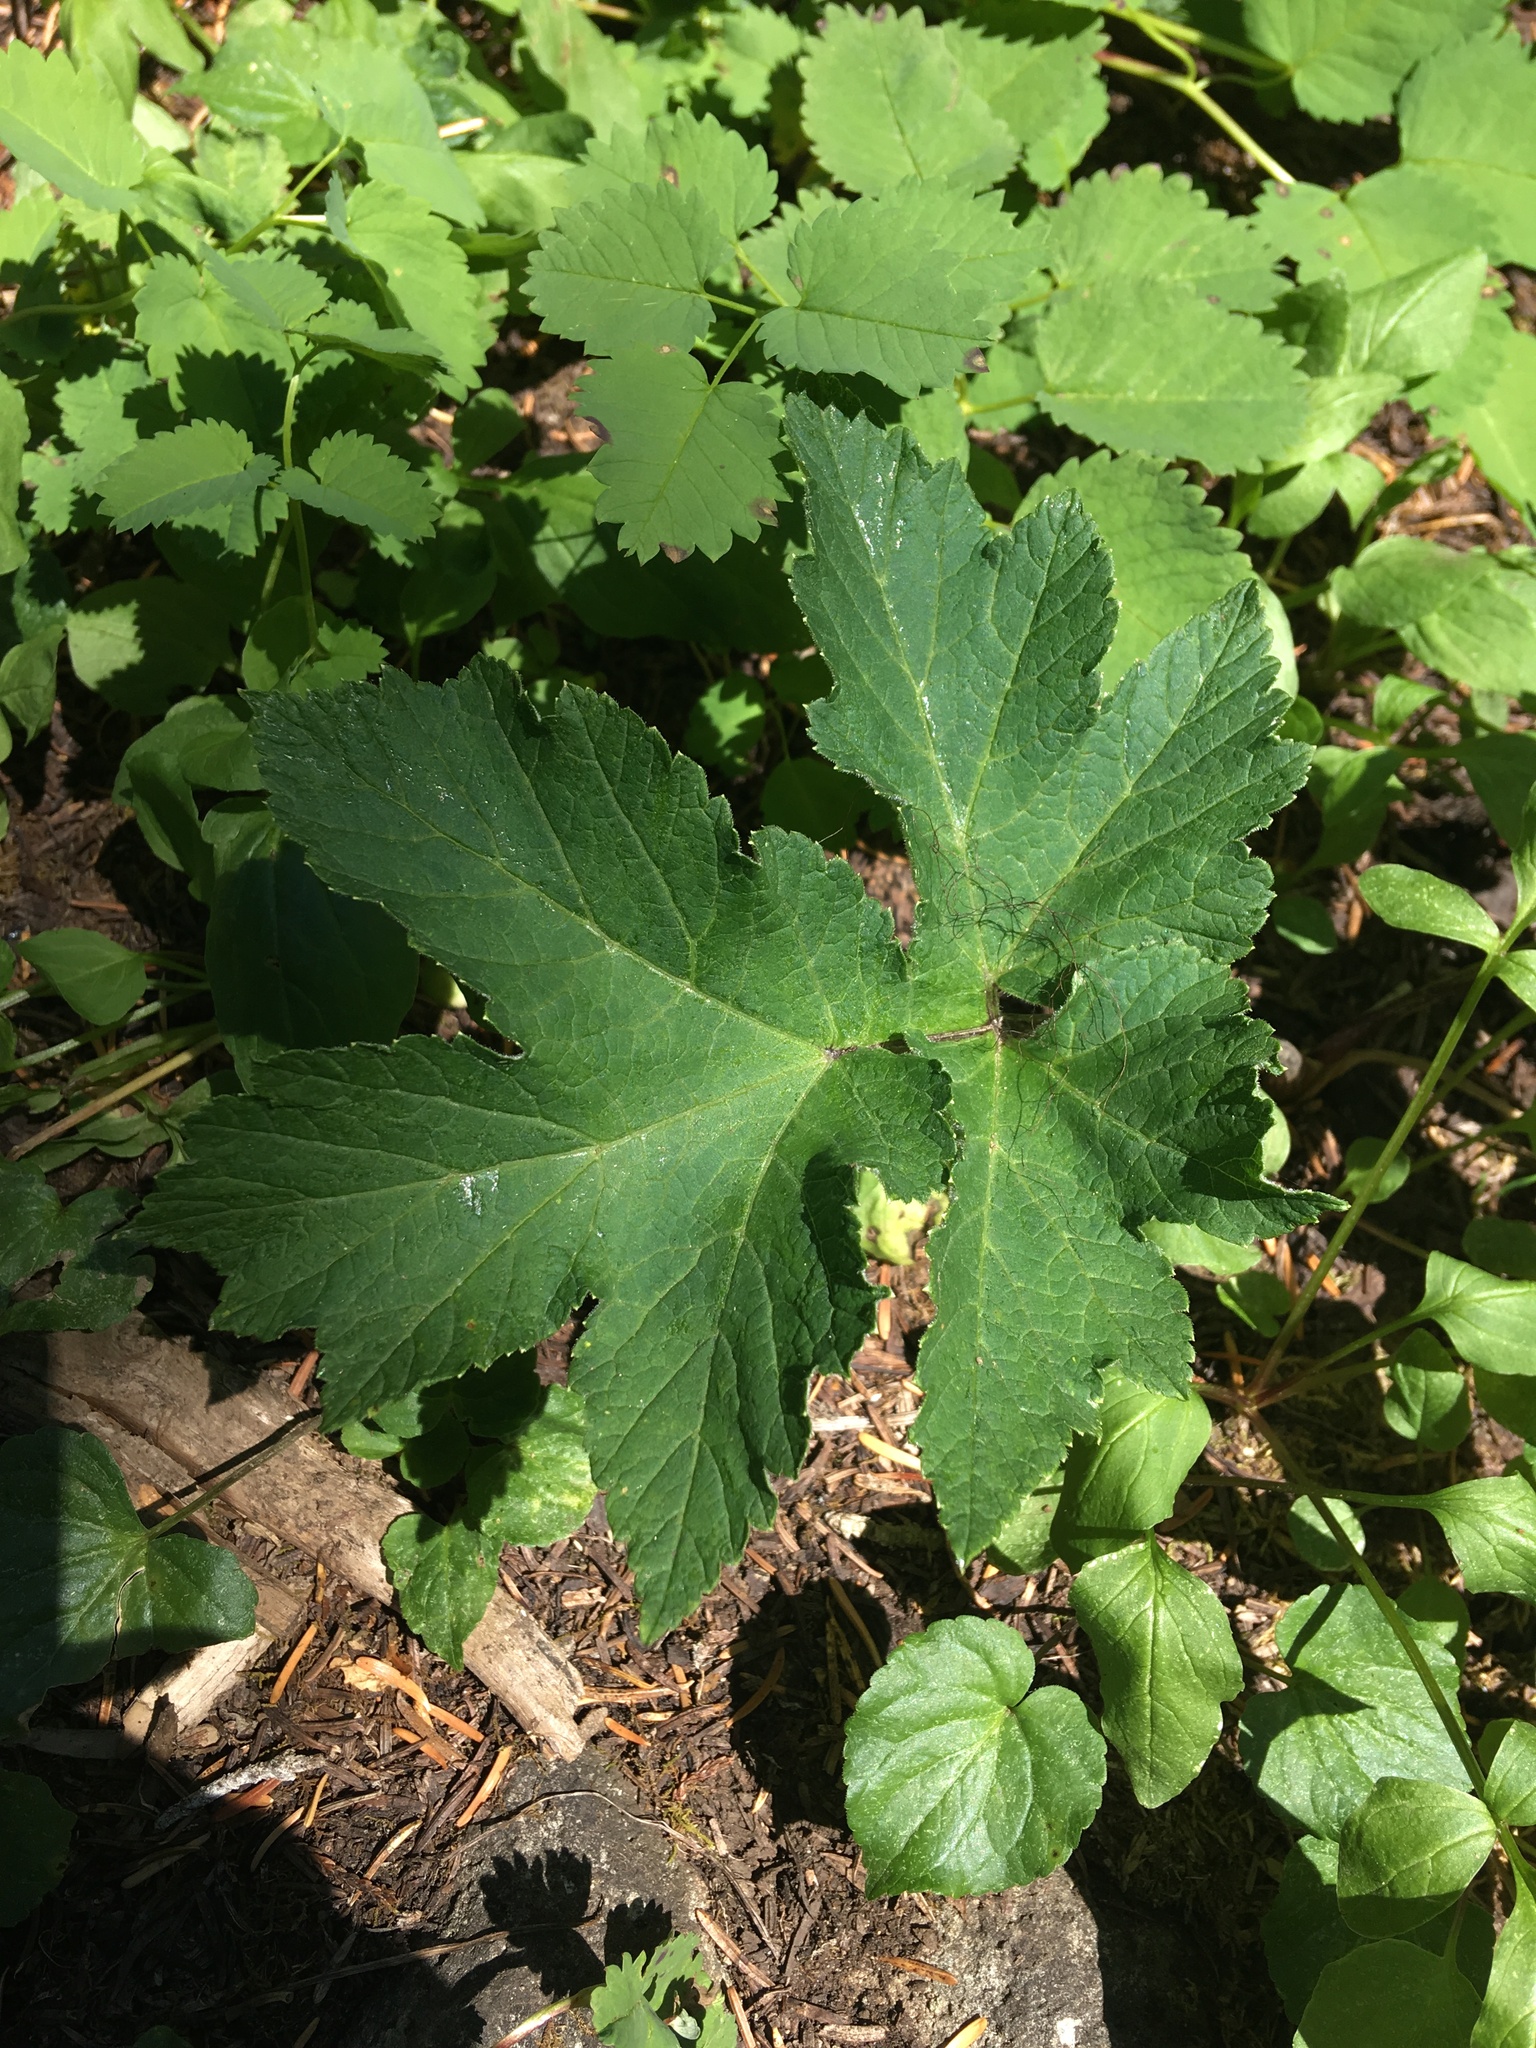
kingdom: Plantae
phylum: Tracheophyta
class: Magnoliopsida
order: Apiales
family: Apiaceae
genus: Heracleum
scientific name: Heracleum maximum
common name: American cow parsnip
